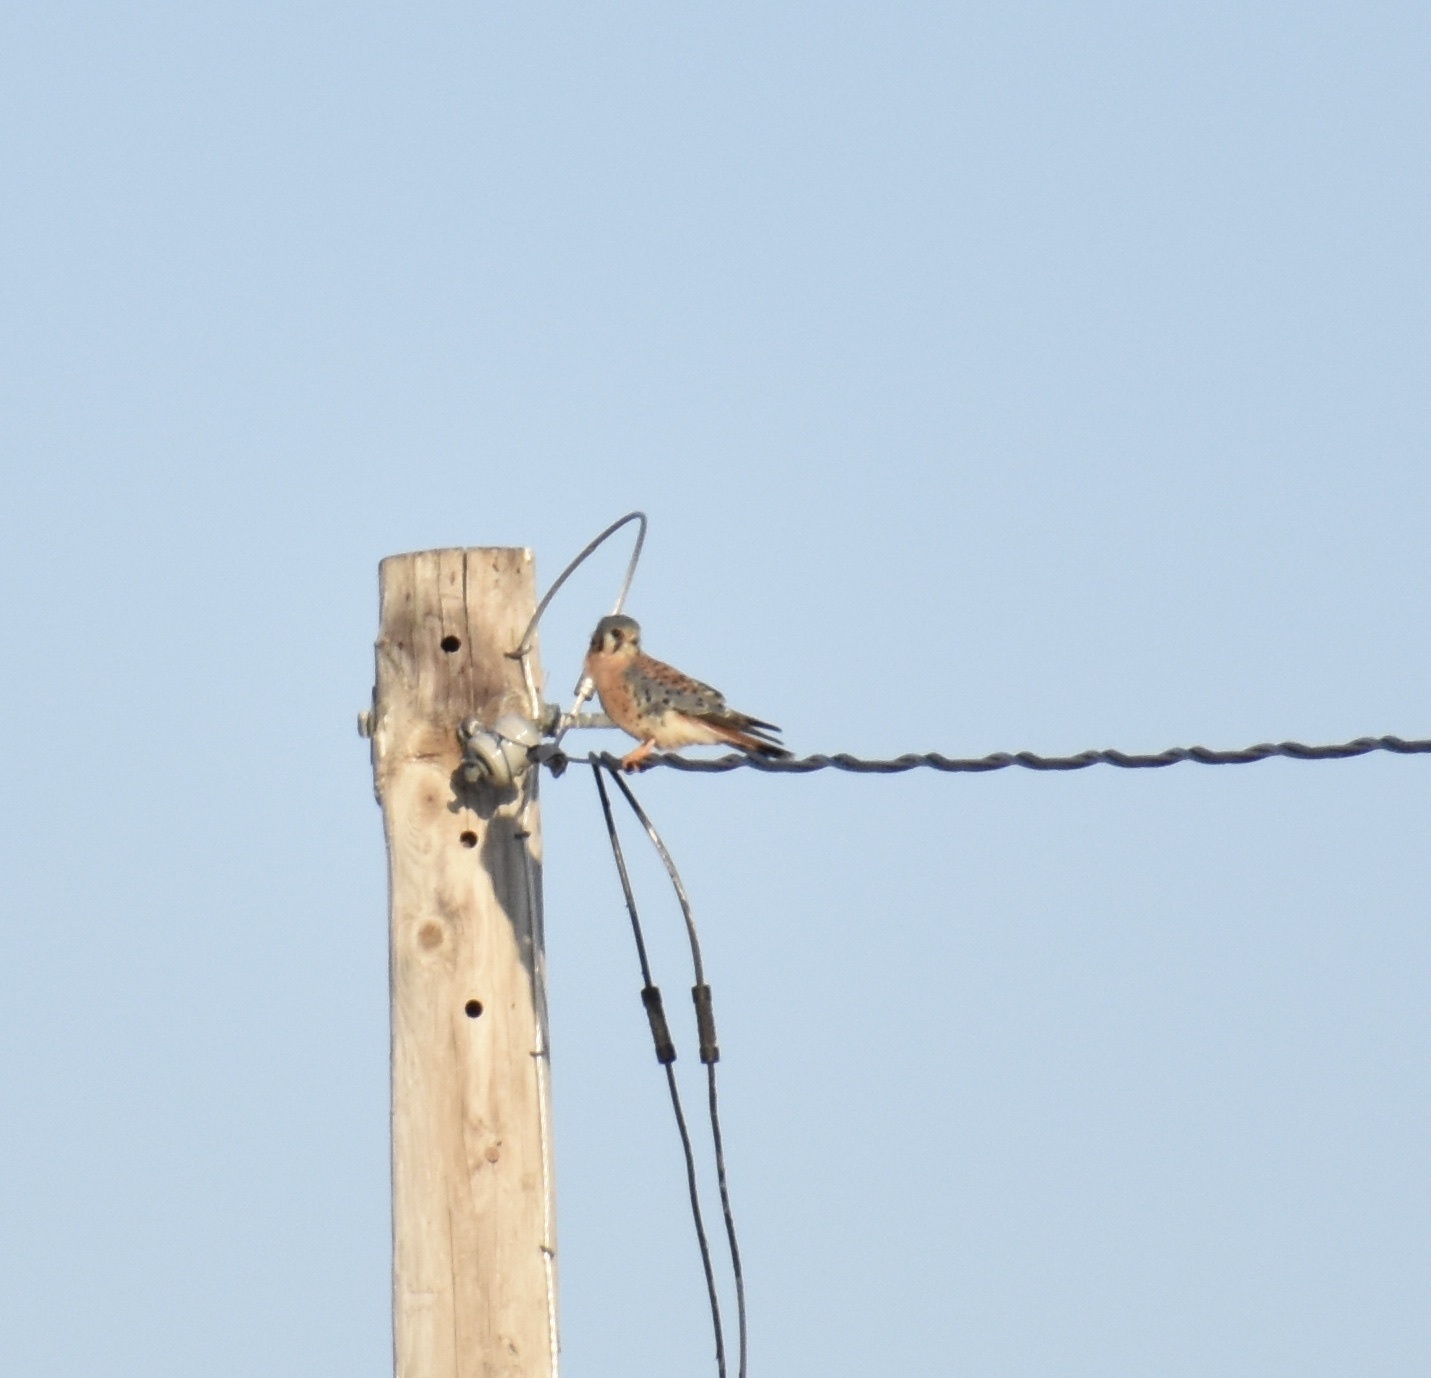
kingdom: Animalia
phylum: Chordata
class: Aves
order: Falconiformes
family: Falconidae
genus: Falco
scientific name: Falco sparverius
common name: American kestrel
